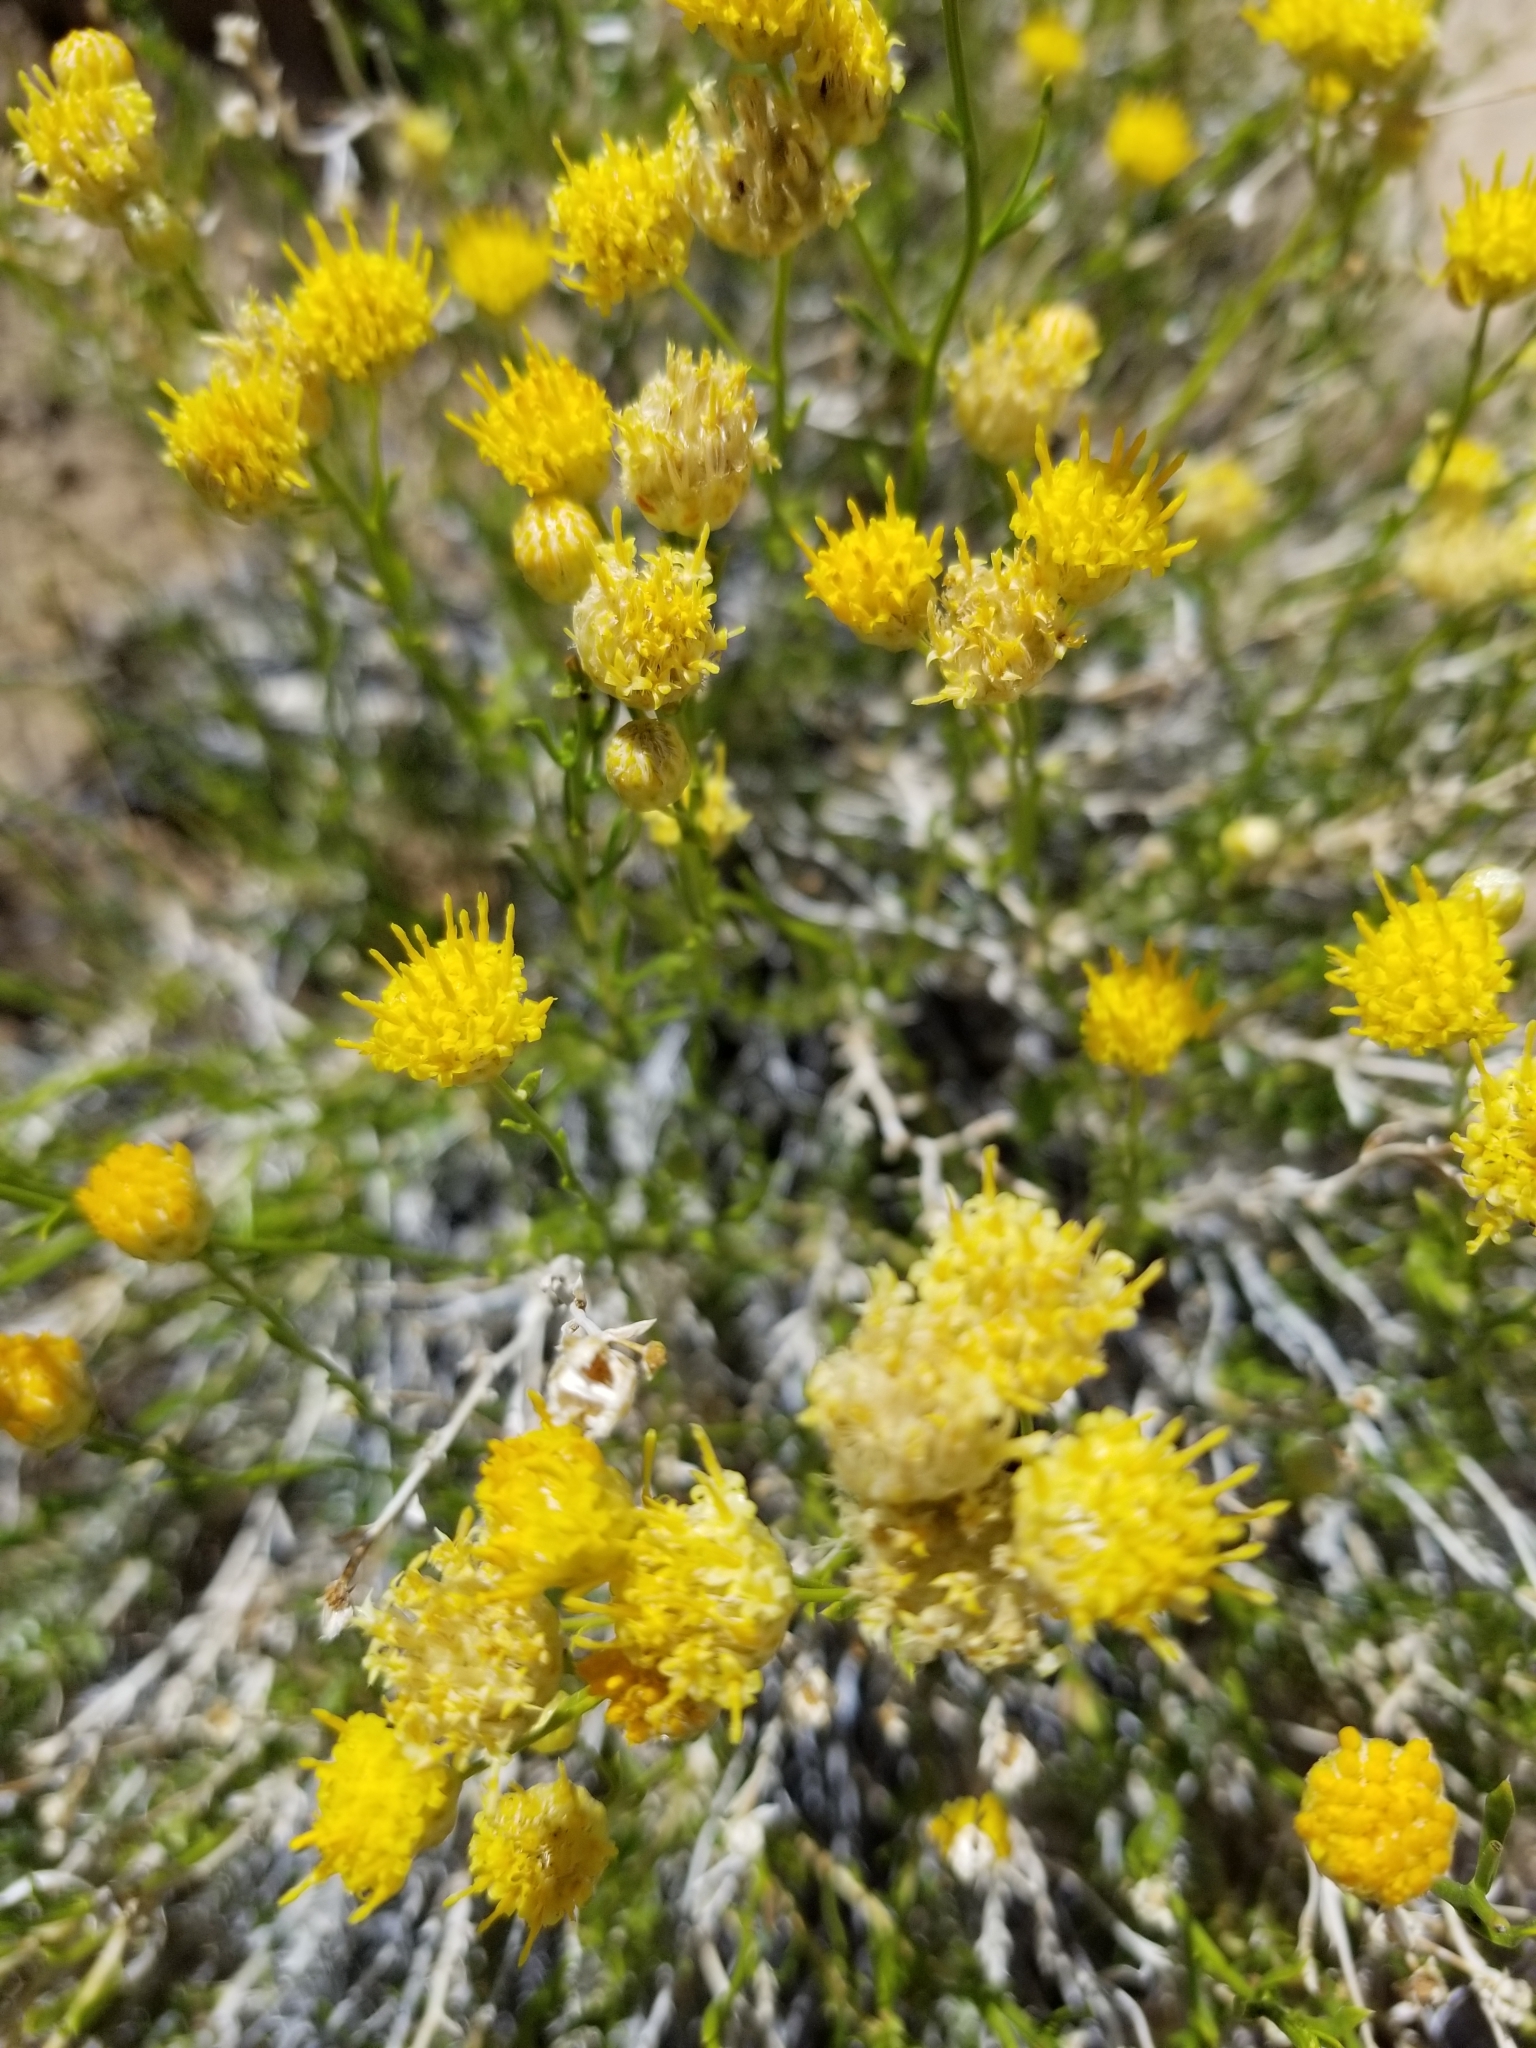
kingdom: Plantae
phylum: Tracheophyta
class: Magnoliopsida
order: Asterales
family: Asteraceae
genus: Acamptopappus
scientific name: Acamptopappus sphaerocephalus
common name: Goldenhead
